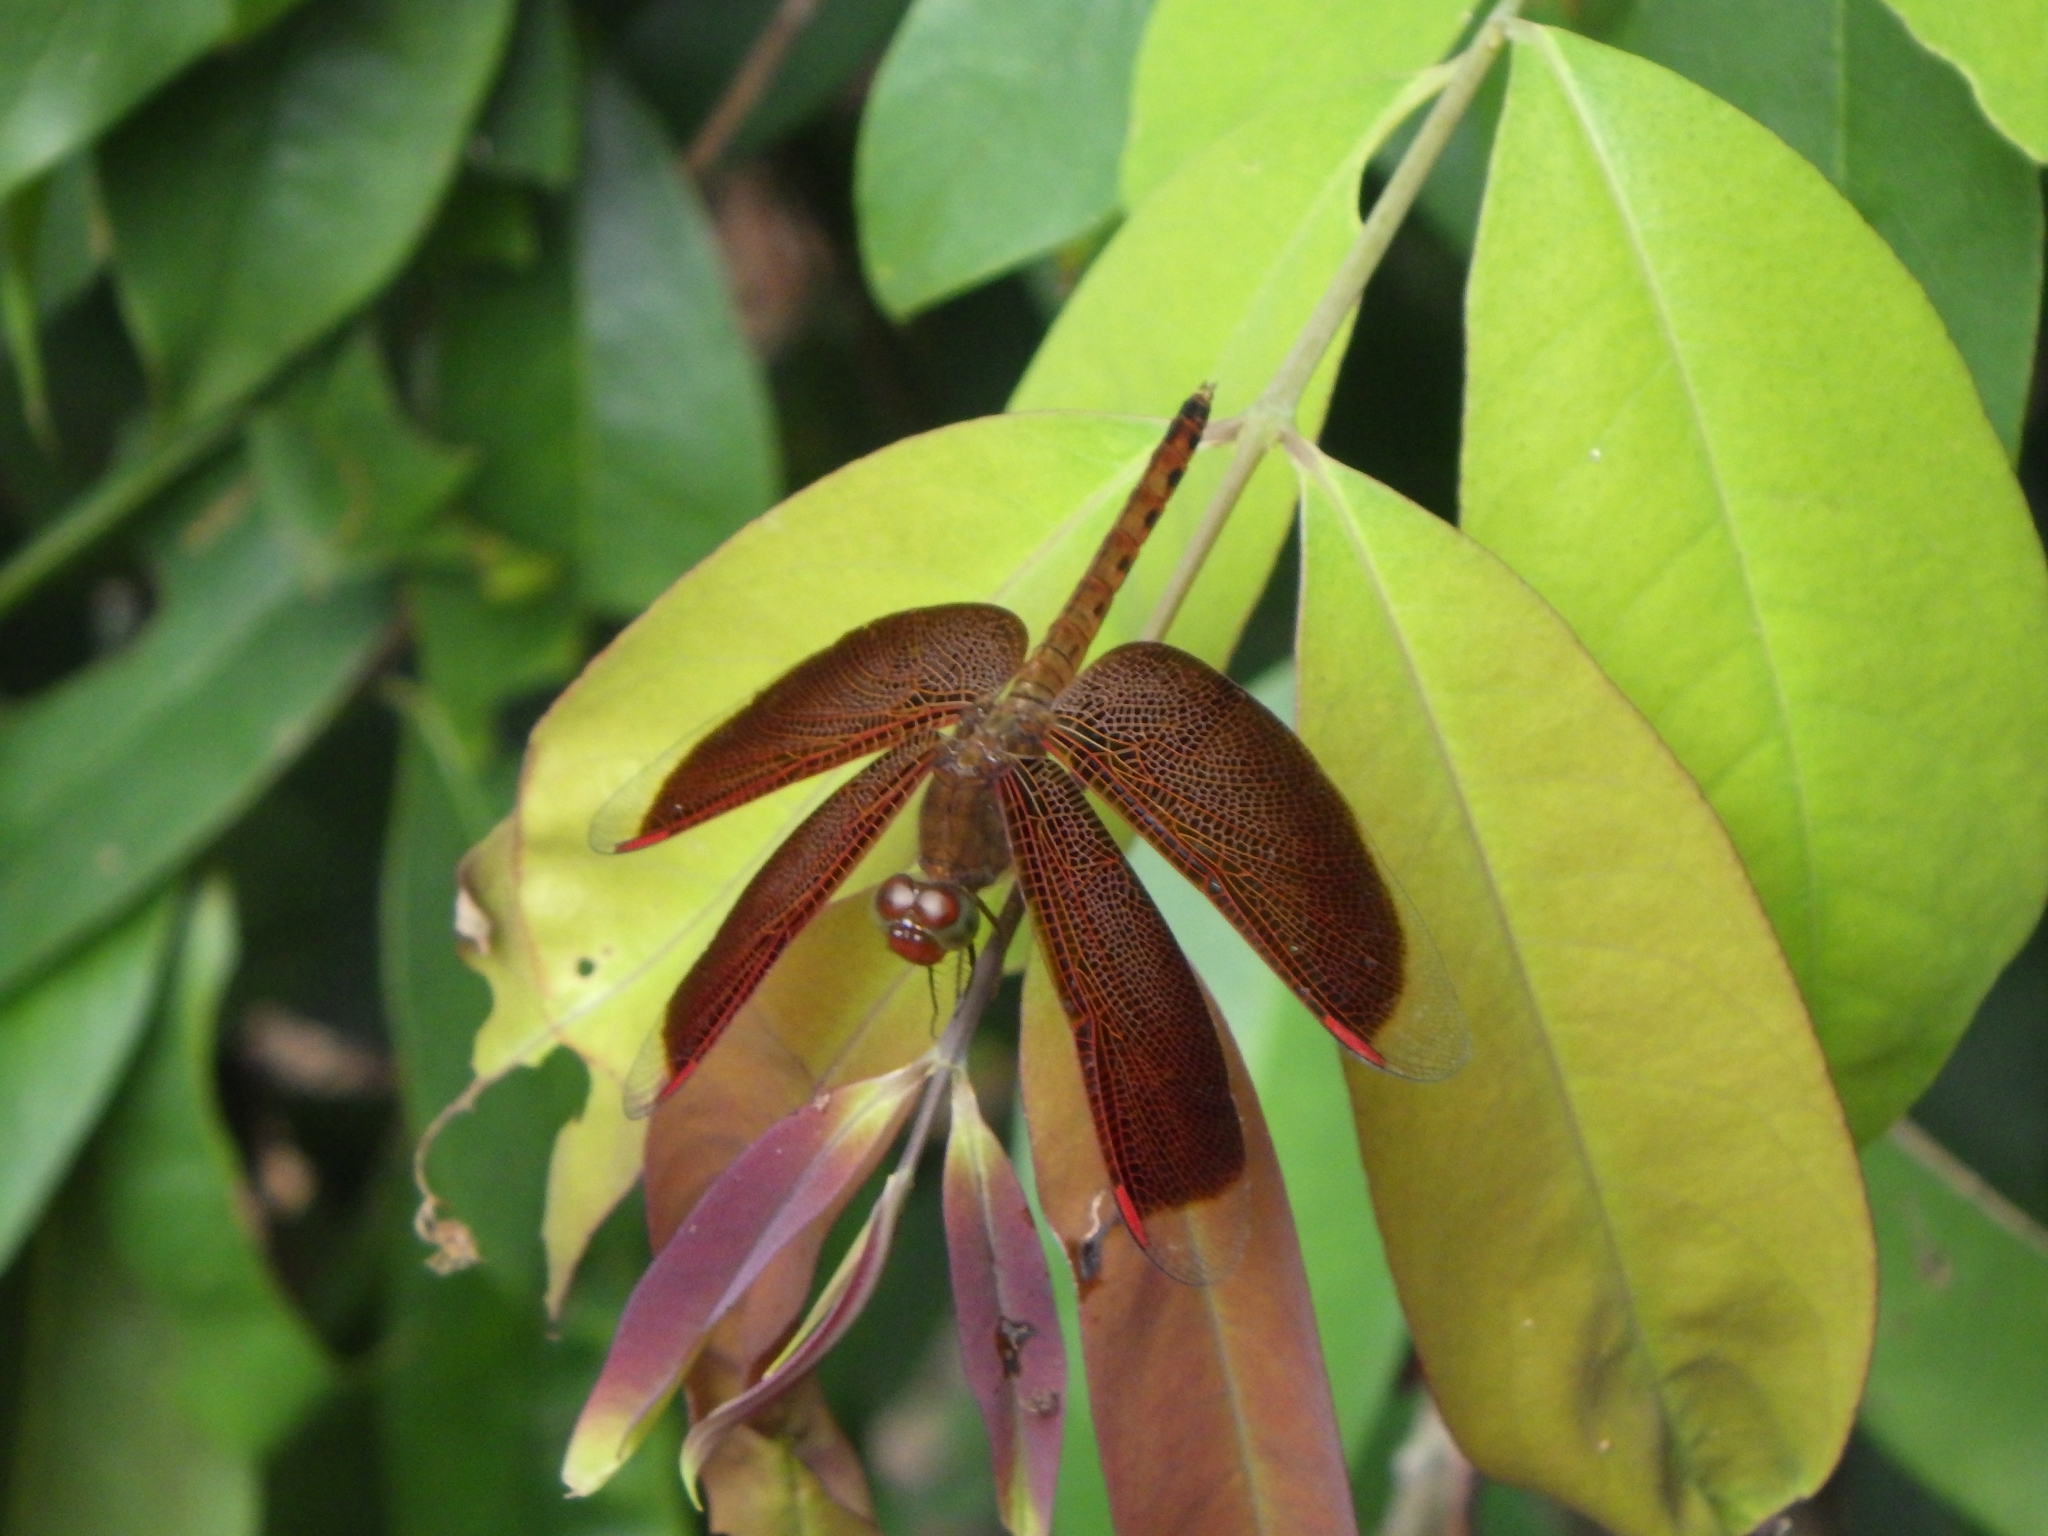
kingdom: Animalia
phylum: Arthropoda
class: Insecta
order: Odonata
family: Libellulidae
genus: Neurothemis
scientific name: Neurothemis fluctuans
